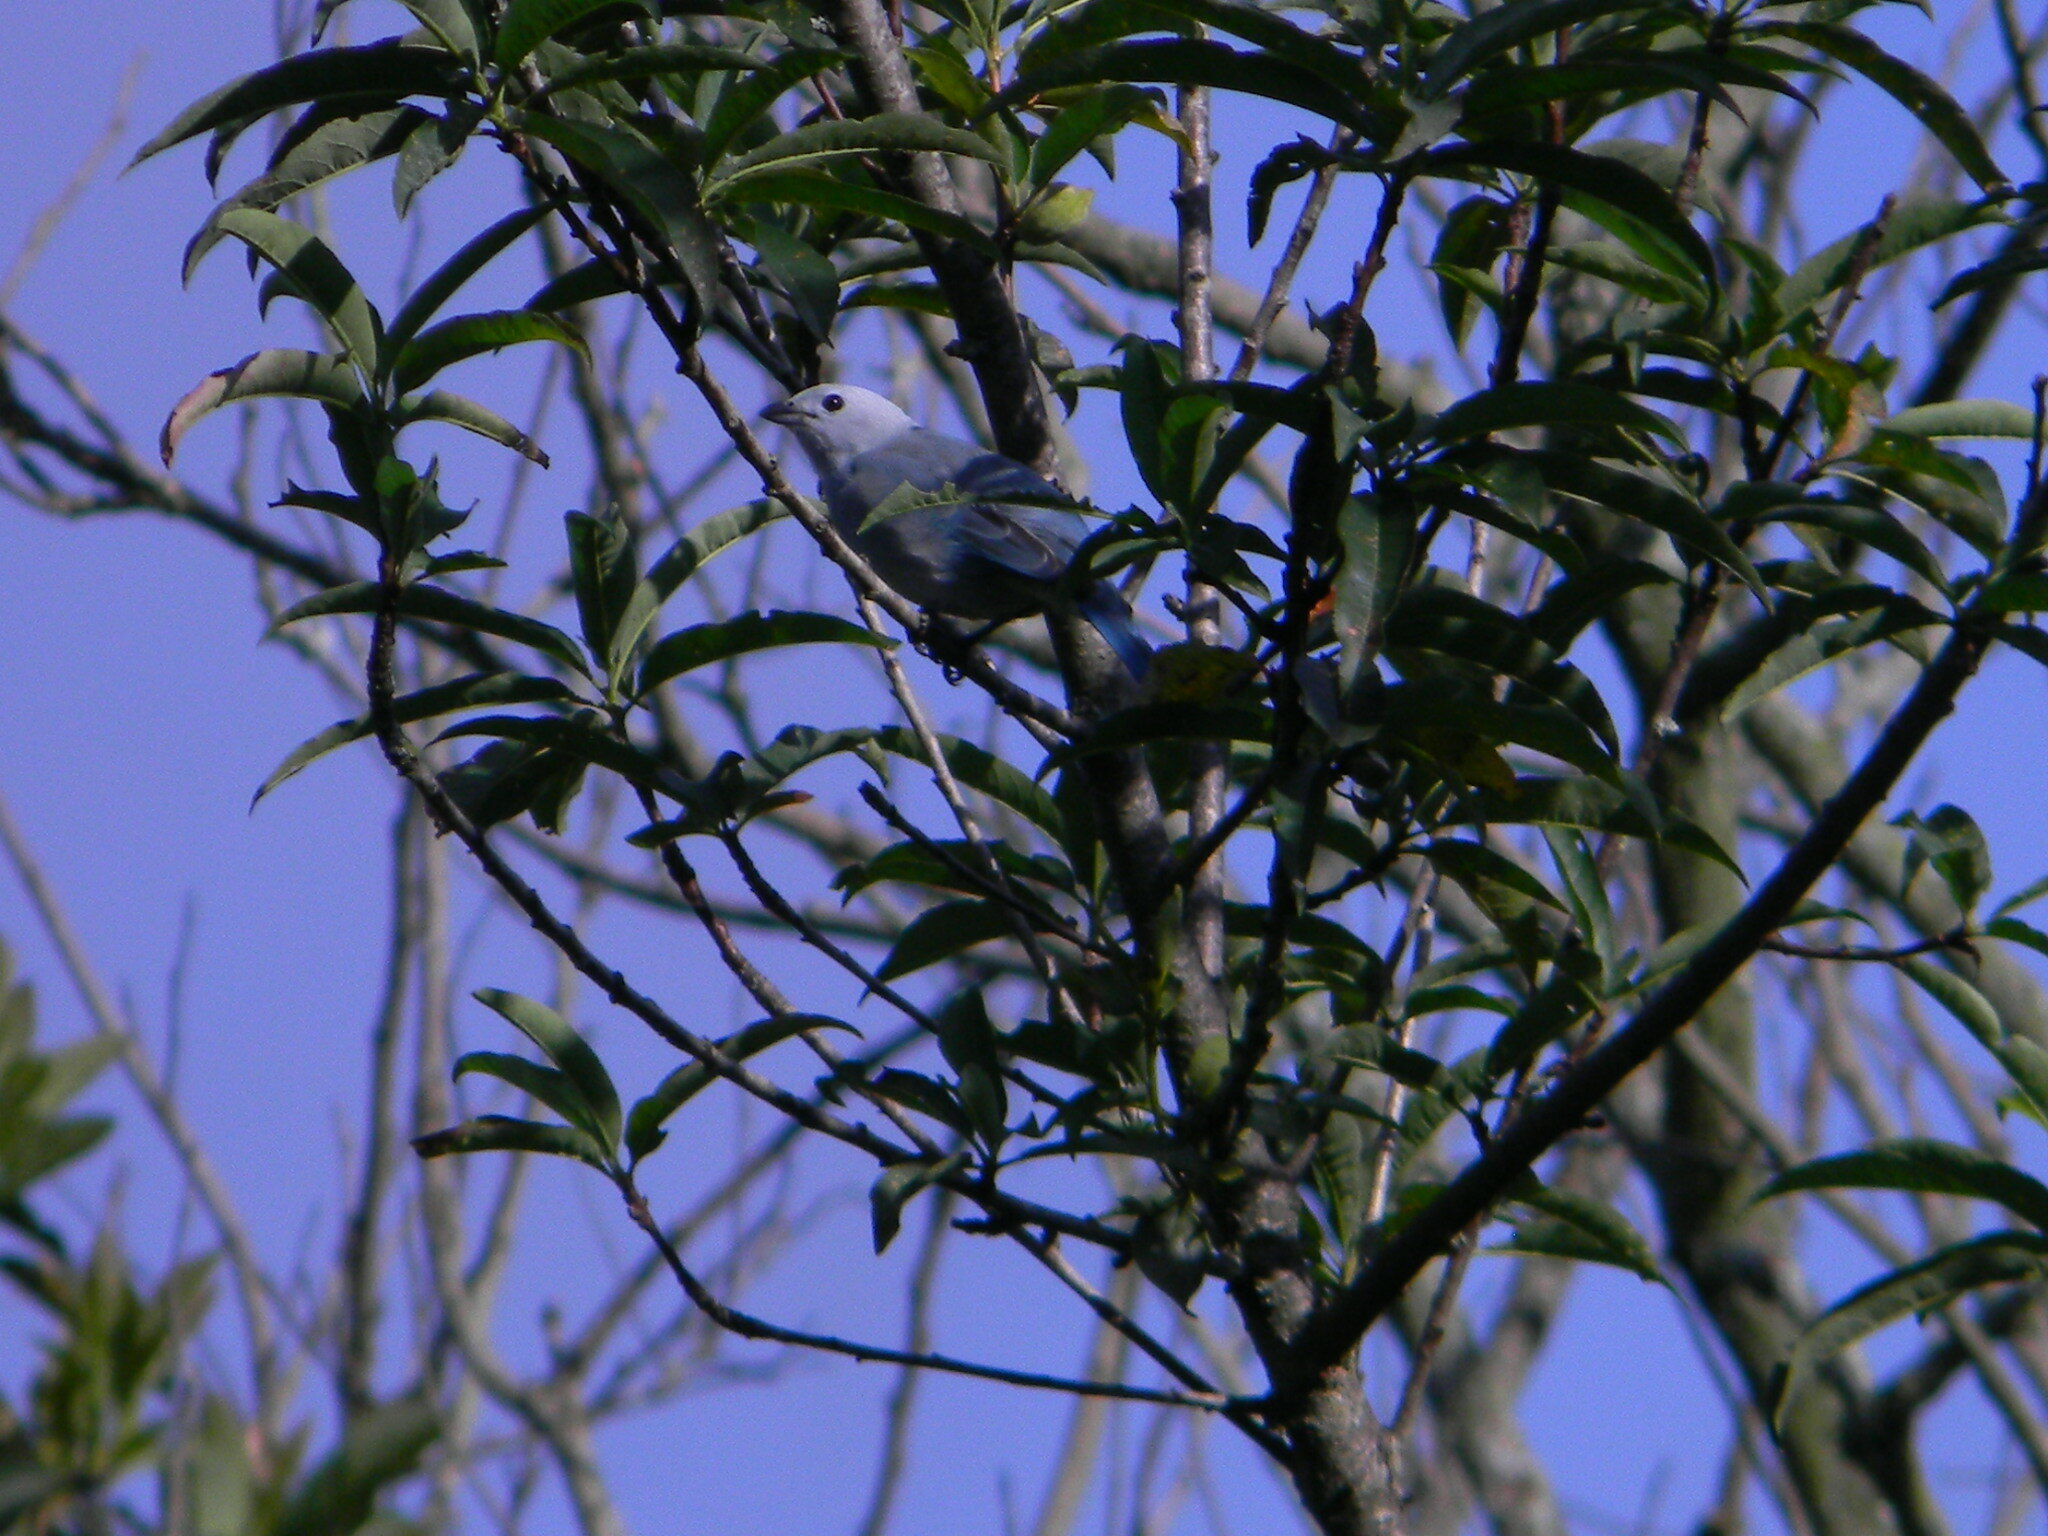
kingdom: Animalia
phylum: Chordata
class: Aves
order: Passeriformes
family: Thraupidae
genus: Thraupis
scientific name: Thraupis episcopus
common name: Blue-grey tanager
